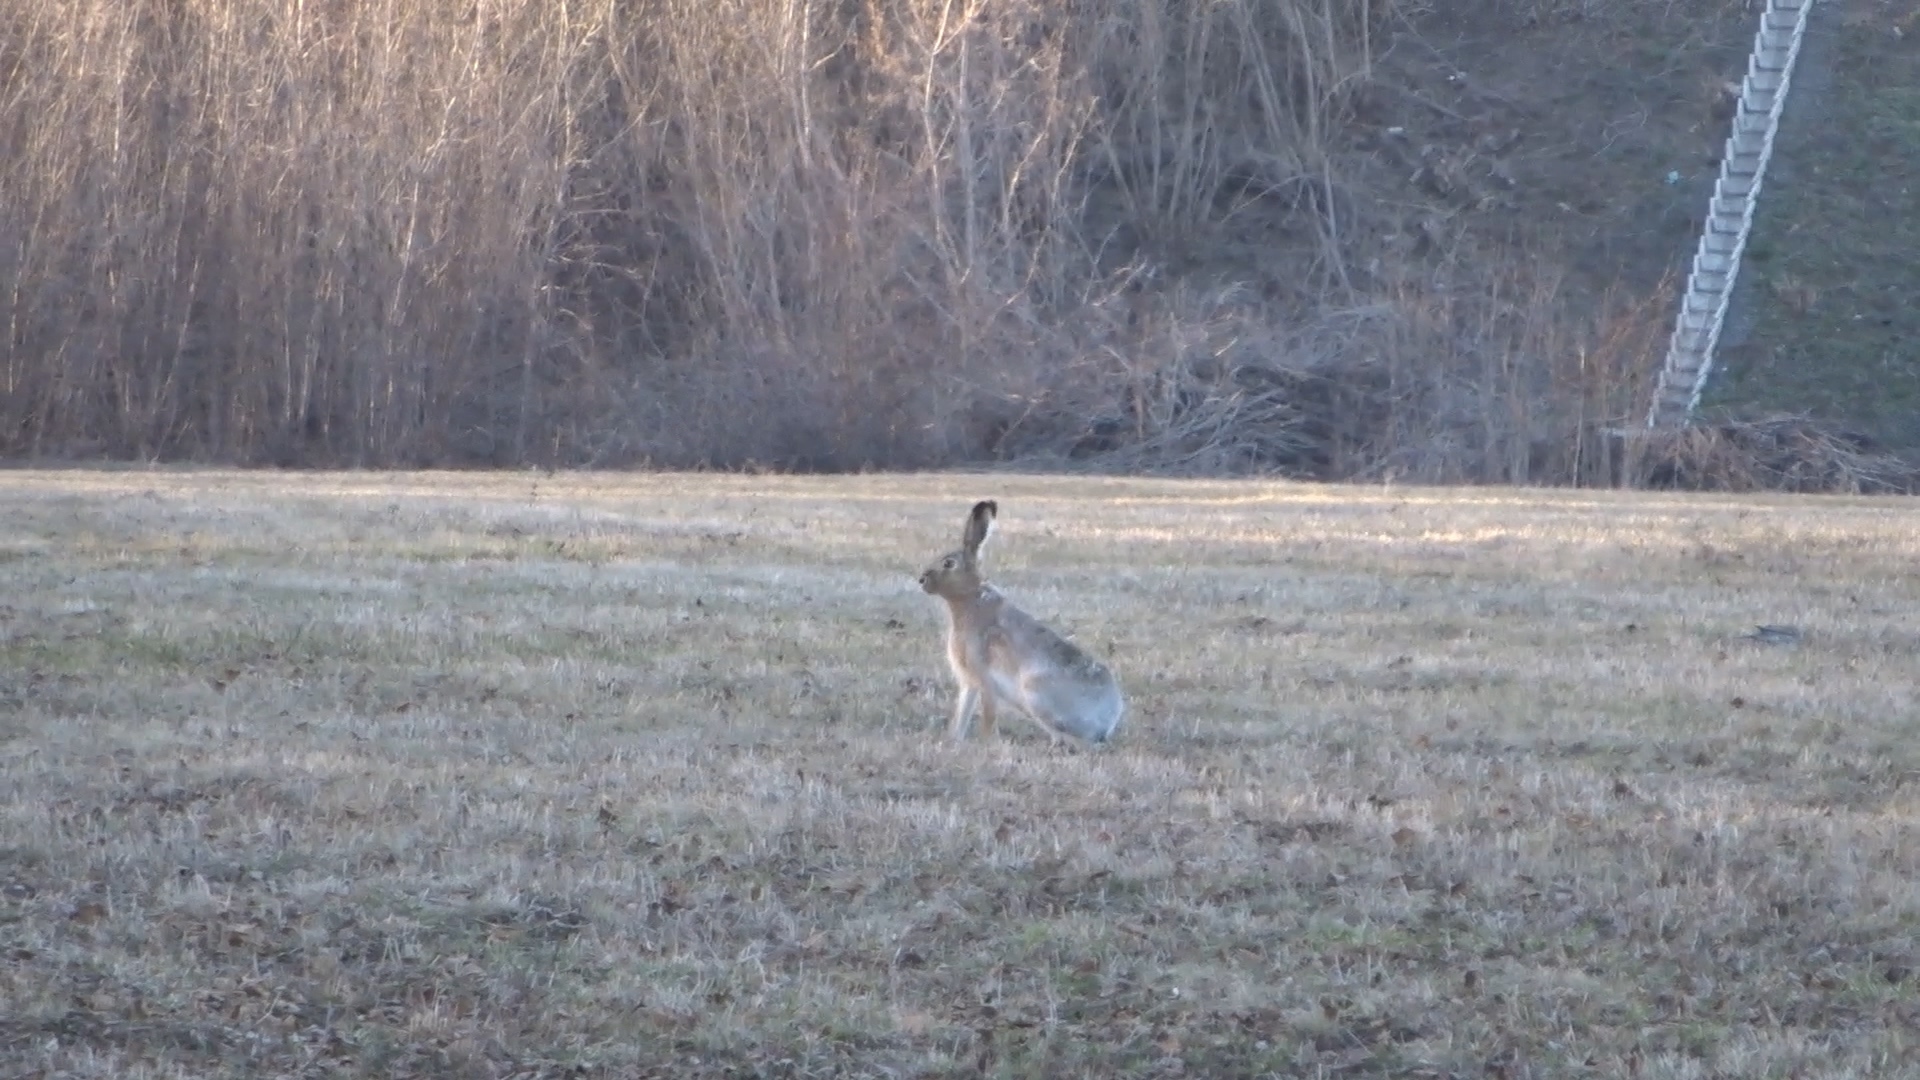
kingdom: Animalia
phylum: Chordata
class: Mammalia
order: Lagomorpha
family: Leporidae
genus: Lepus
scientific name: Lepus europaeus
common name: European hare
